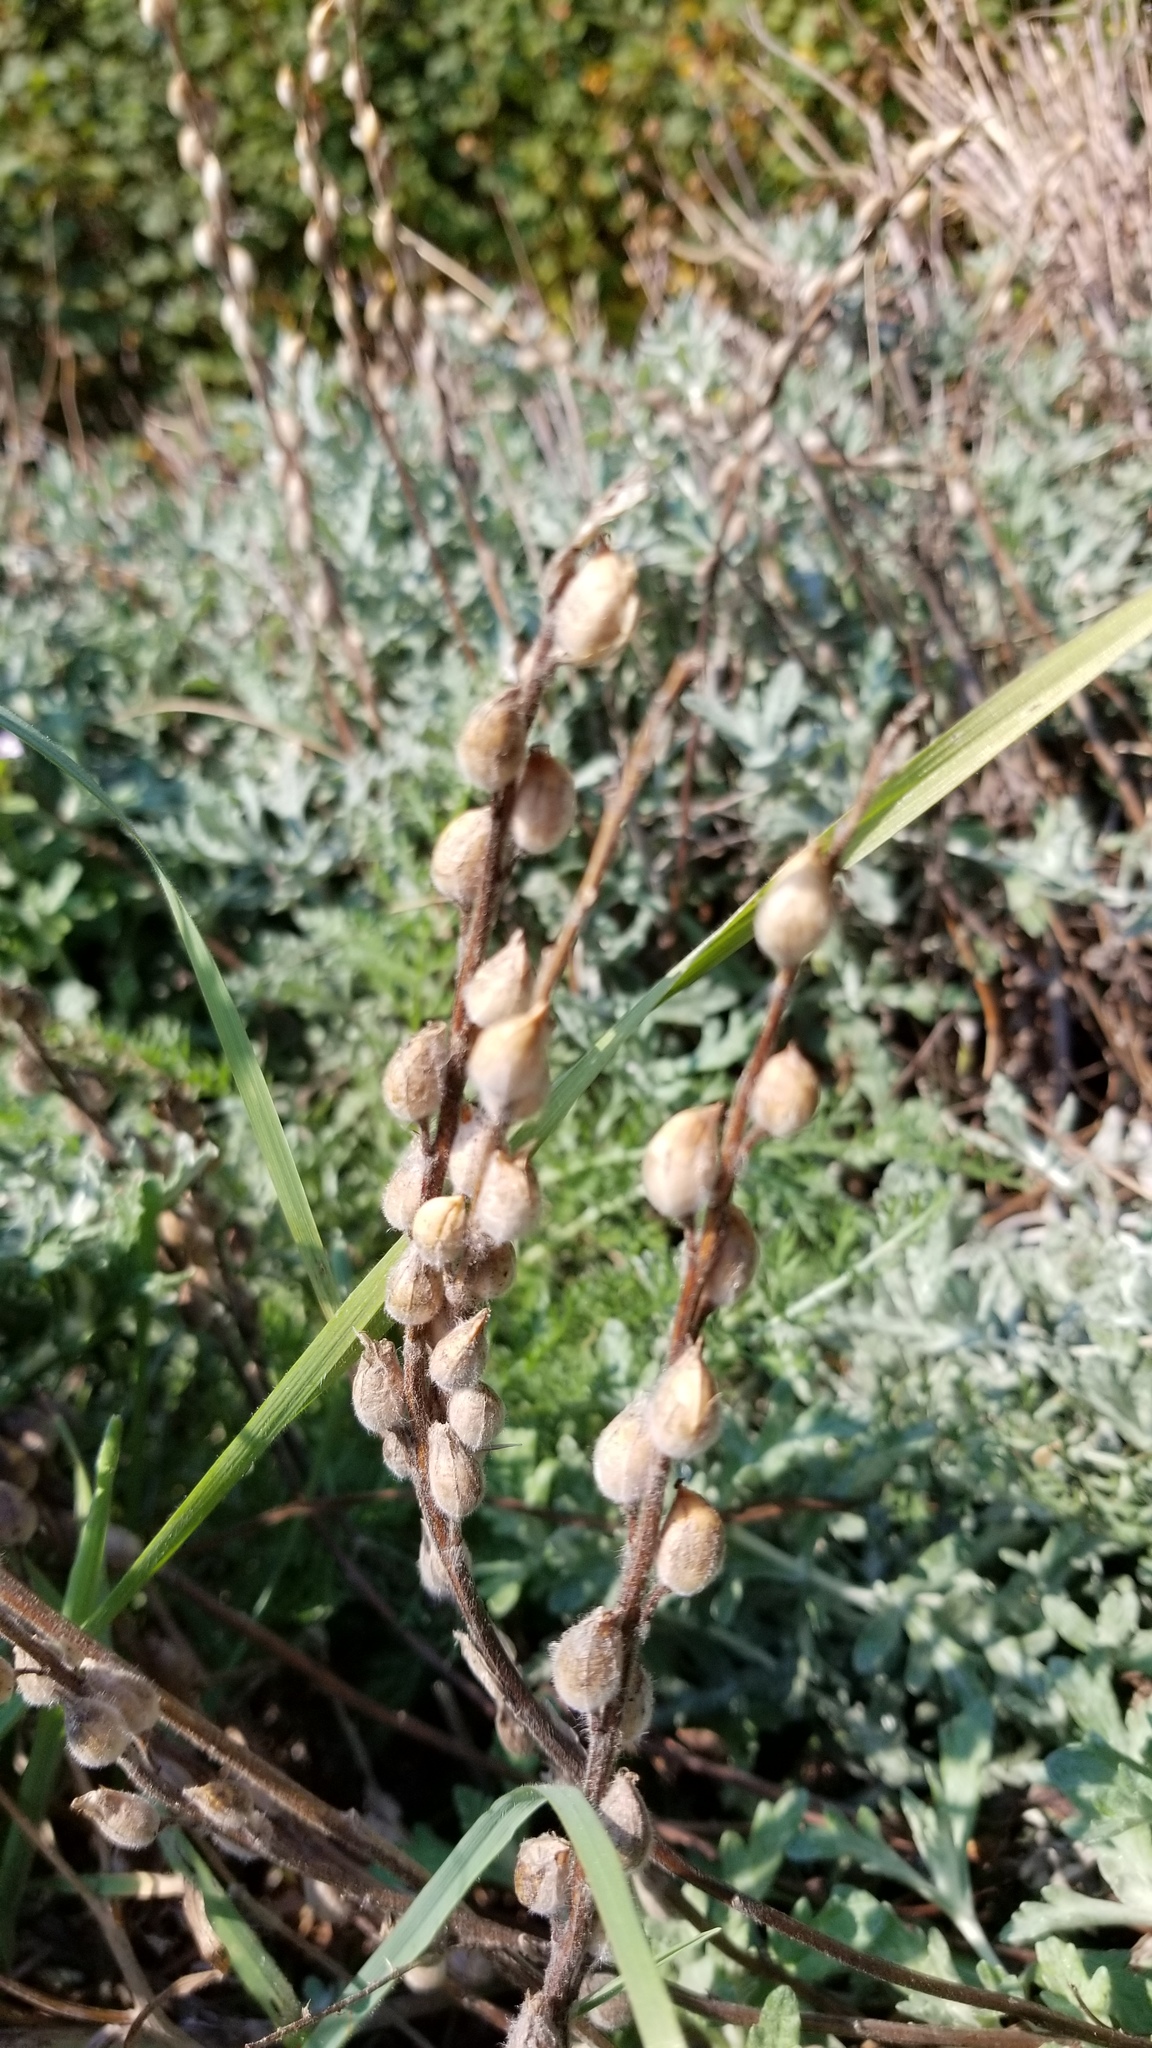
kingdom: Plantae
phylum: Tracheophyta
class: Magnoliopsida
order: Lamiales
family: Orobanchaceae
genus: Castilleja
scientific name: Castilleja levisecta
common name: Golden paintbrush
